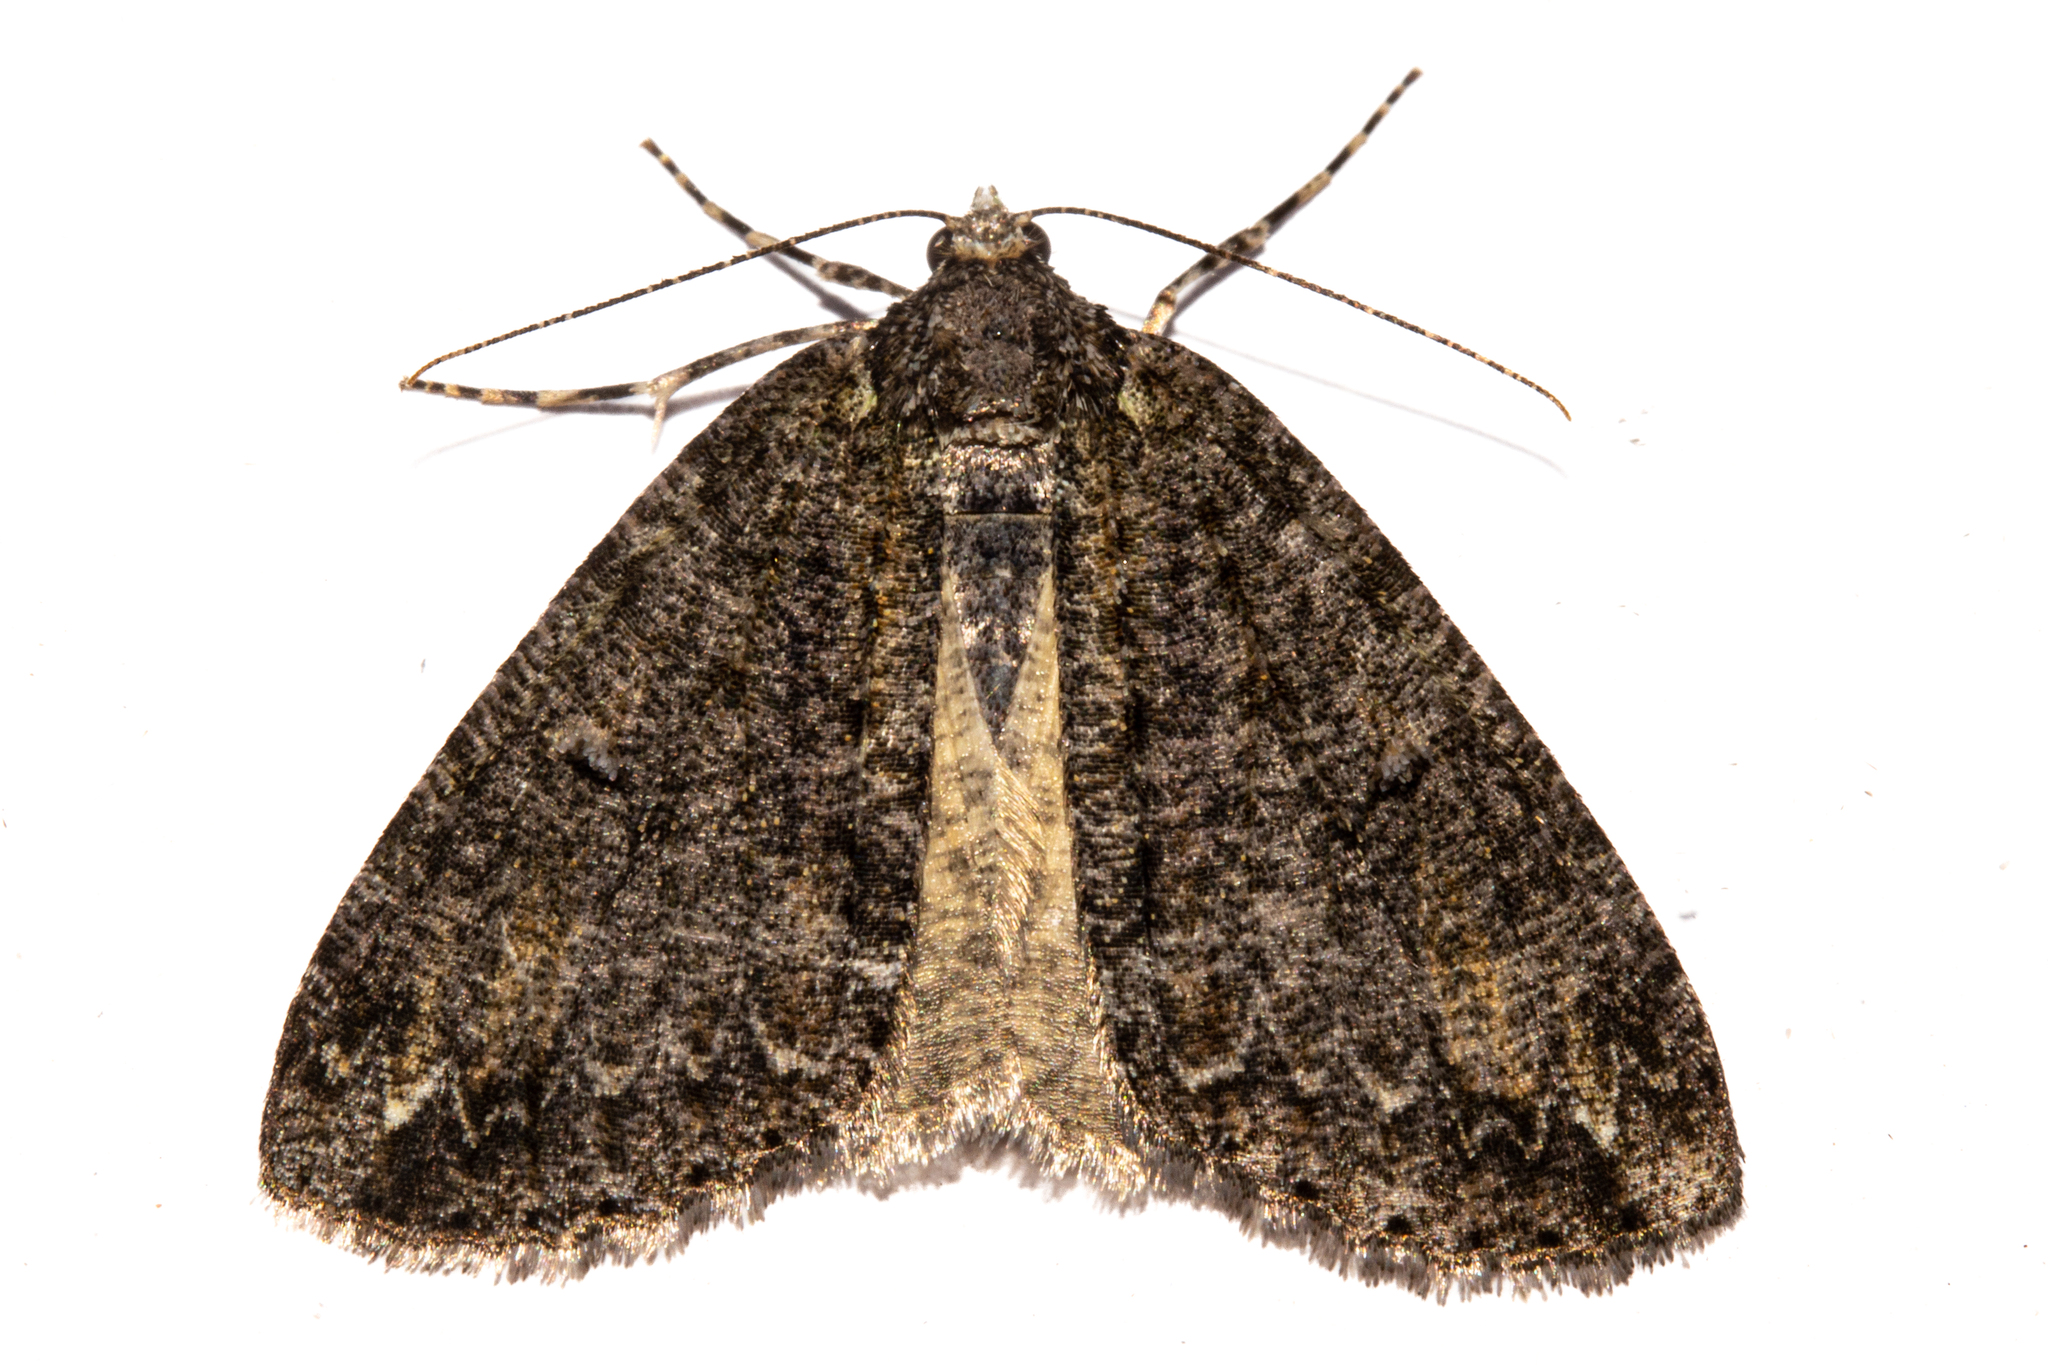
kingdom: Animalia
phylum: Arthropoda
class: Insecta
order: Lepidoptera
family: Geometridae
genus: Pseudocoremia
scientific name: Pseudocoremia suavis
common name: Common forest looper
